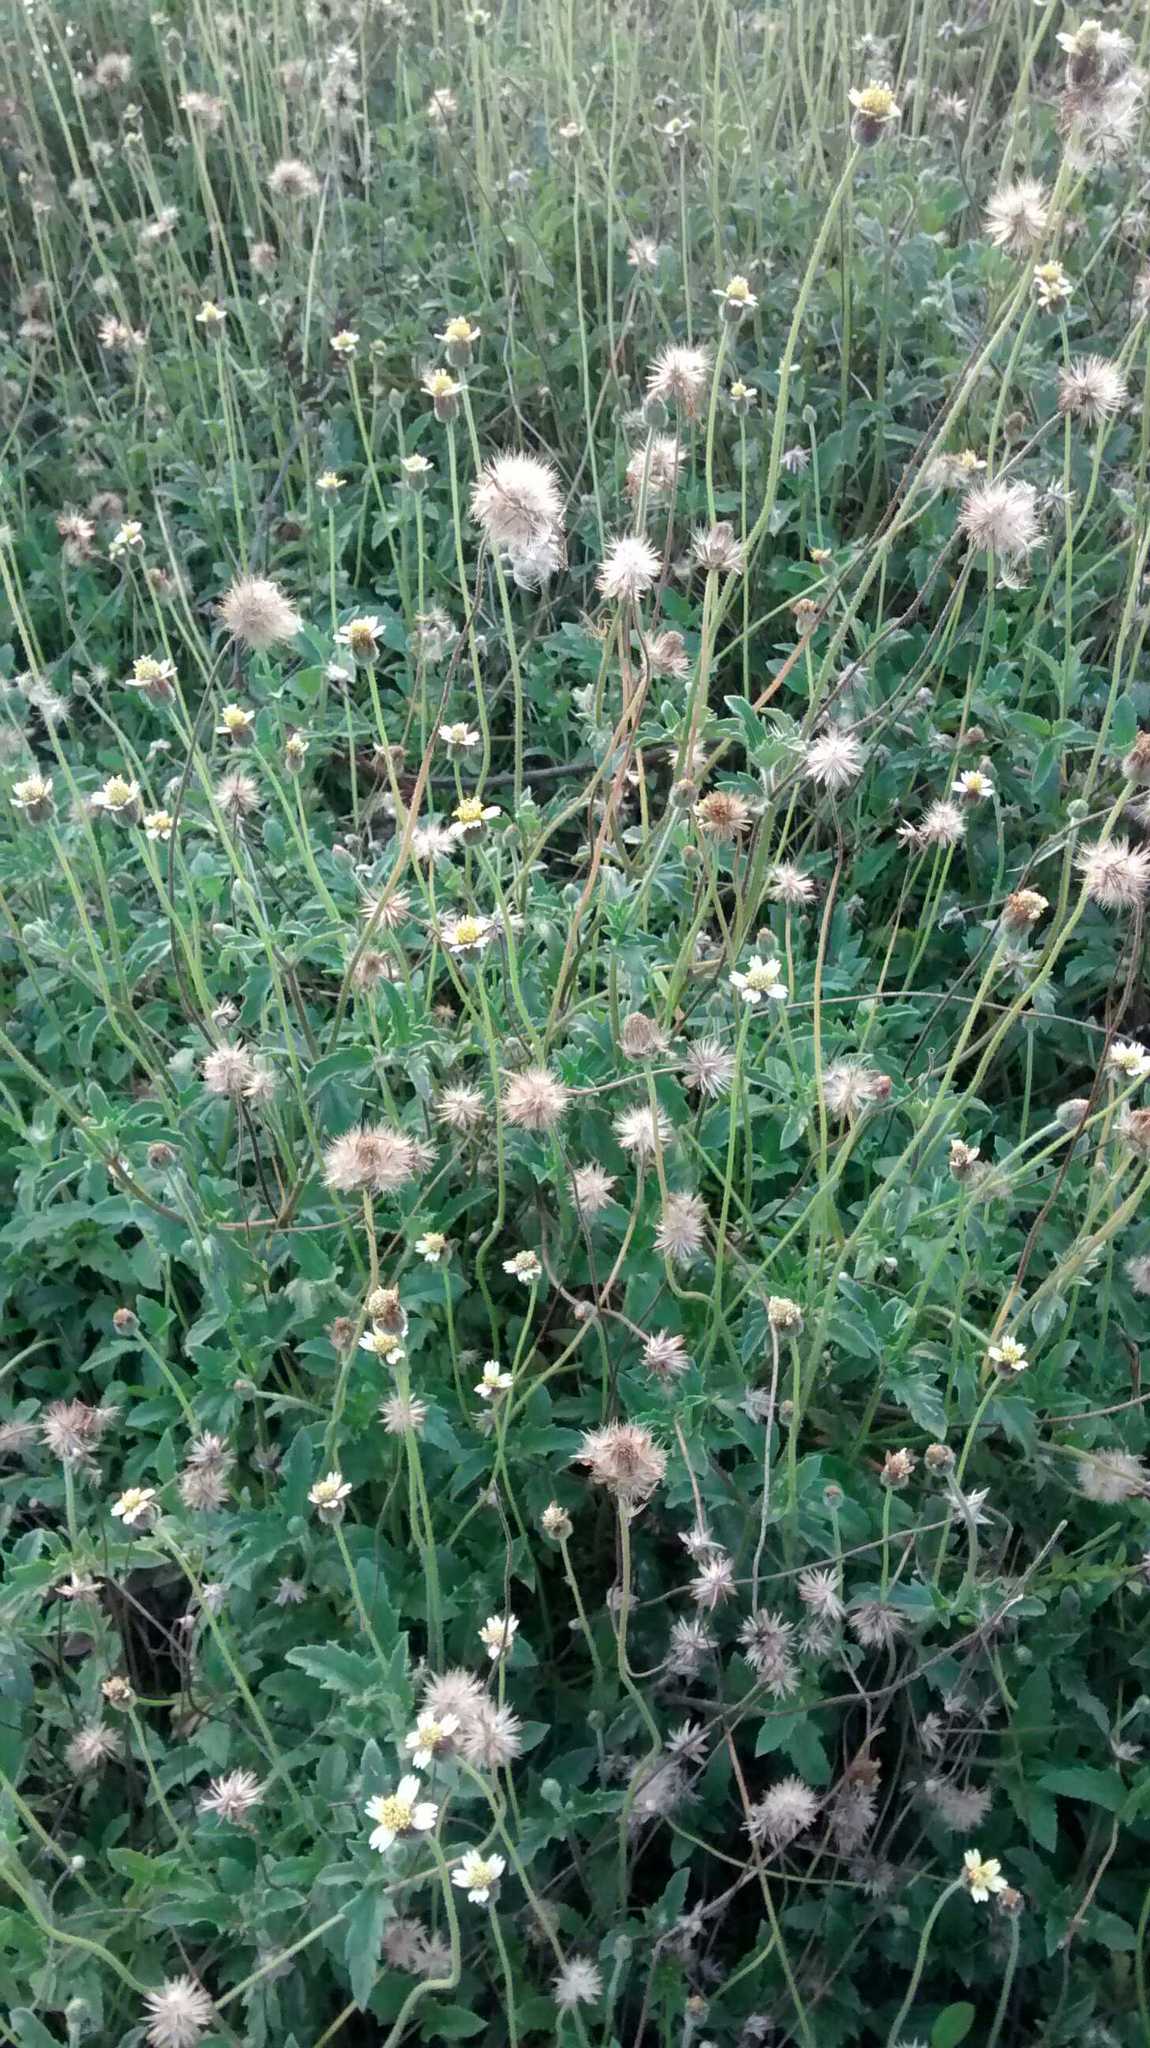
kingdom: Plantae
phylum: Tracheophyta
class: Magnoliopsida
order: Asterales
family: Asteraceae
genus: Tridax
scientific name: Tridax procumbens
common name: Coatbuttons
